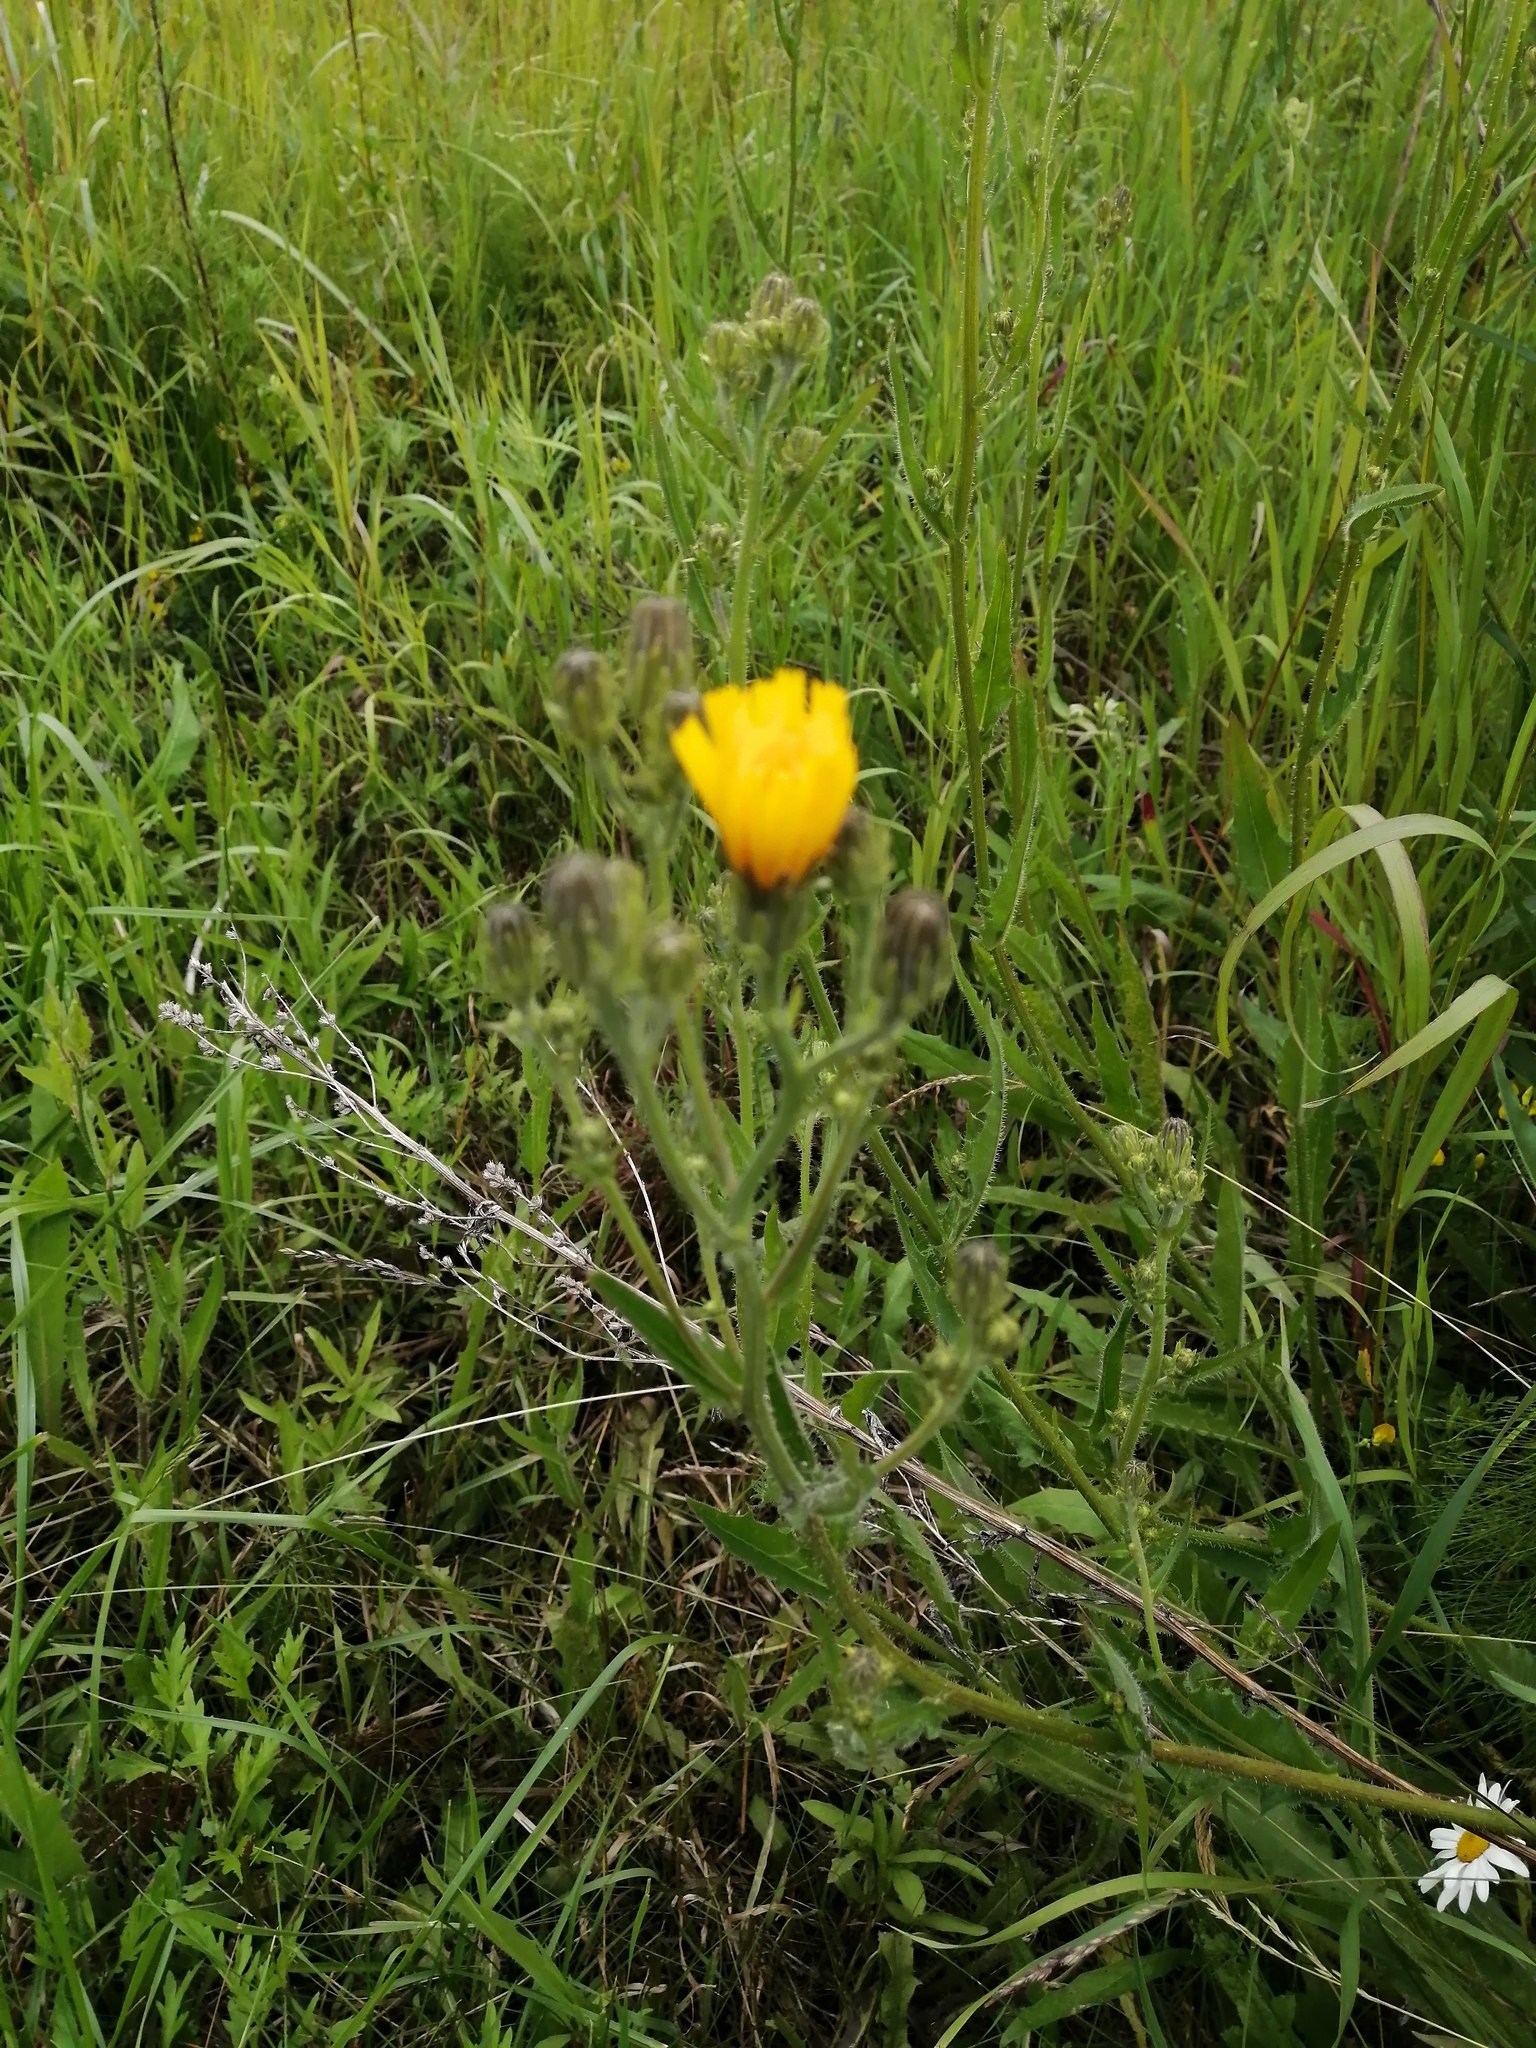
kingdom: Plantae
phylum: Tracheophyta
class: Magnoliopsida
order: Asterales
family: Asteraceae
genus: Picris
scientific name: Picris hieracioides
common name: Hawkweed oxtongue
